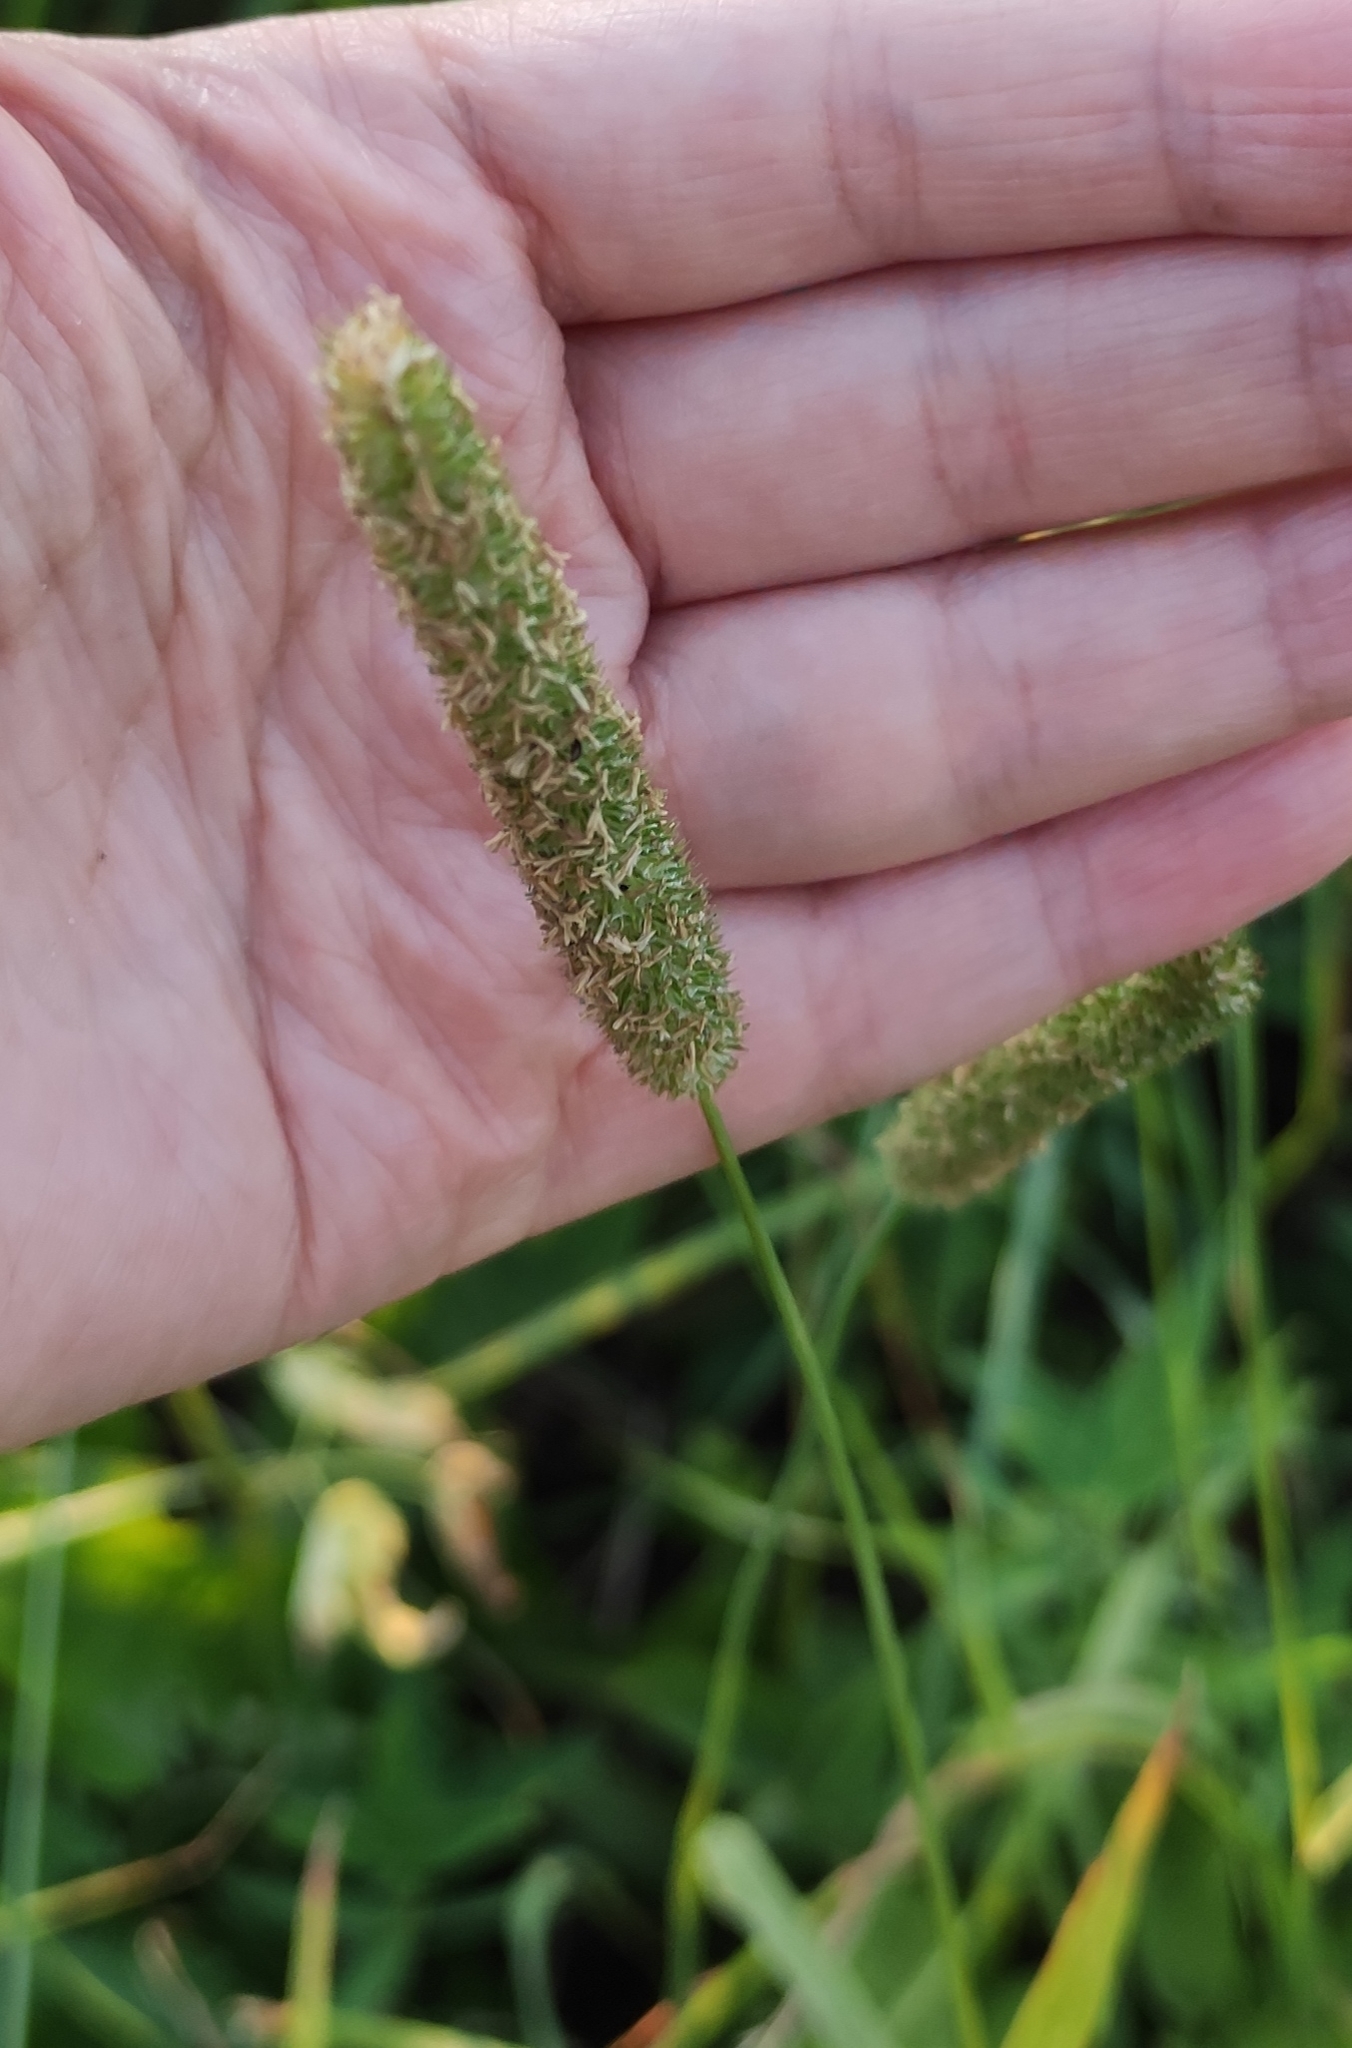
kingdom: Plantae
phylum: Tracheophyta
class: Liliopsida
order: Poales
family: Poaceae
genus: Phleum
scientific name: Phleum pratense
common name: Timothy grass
